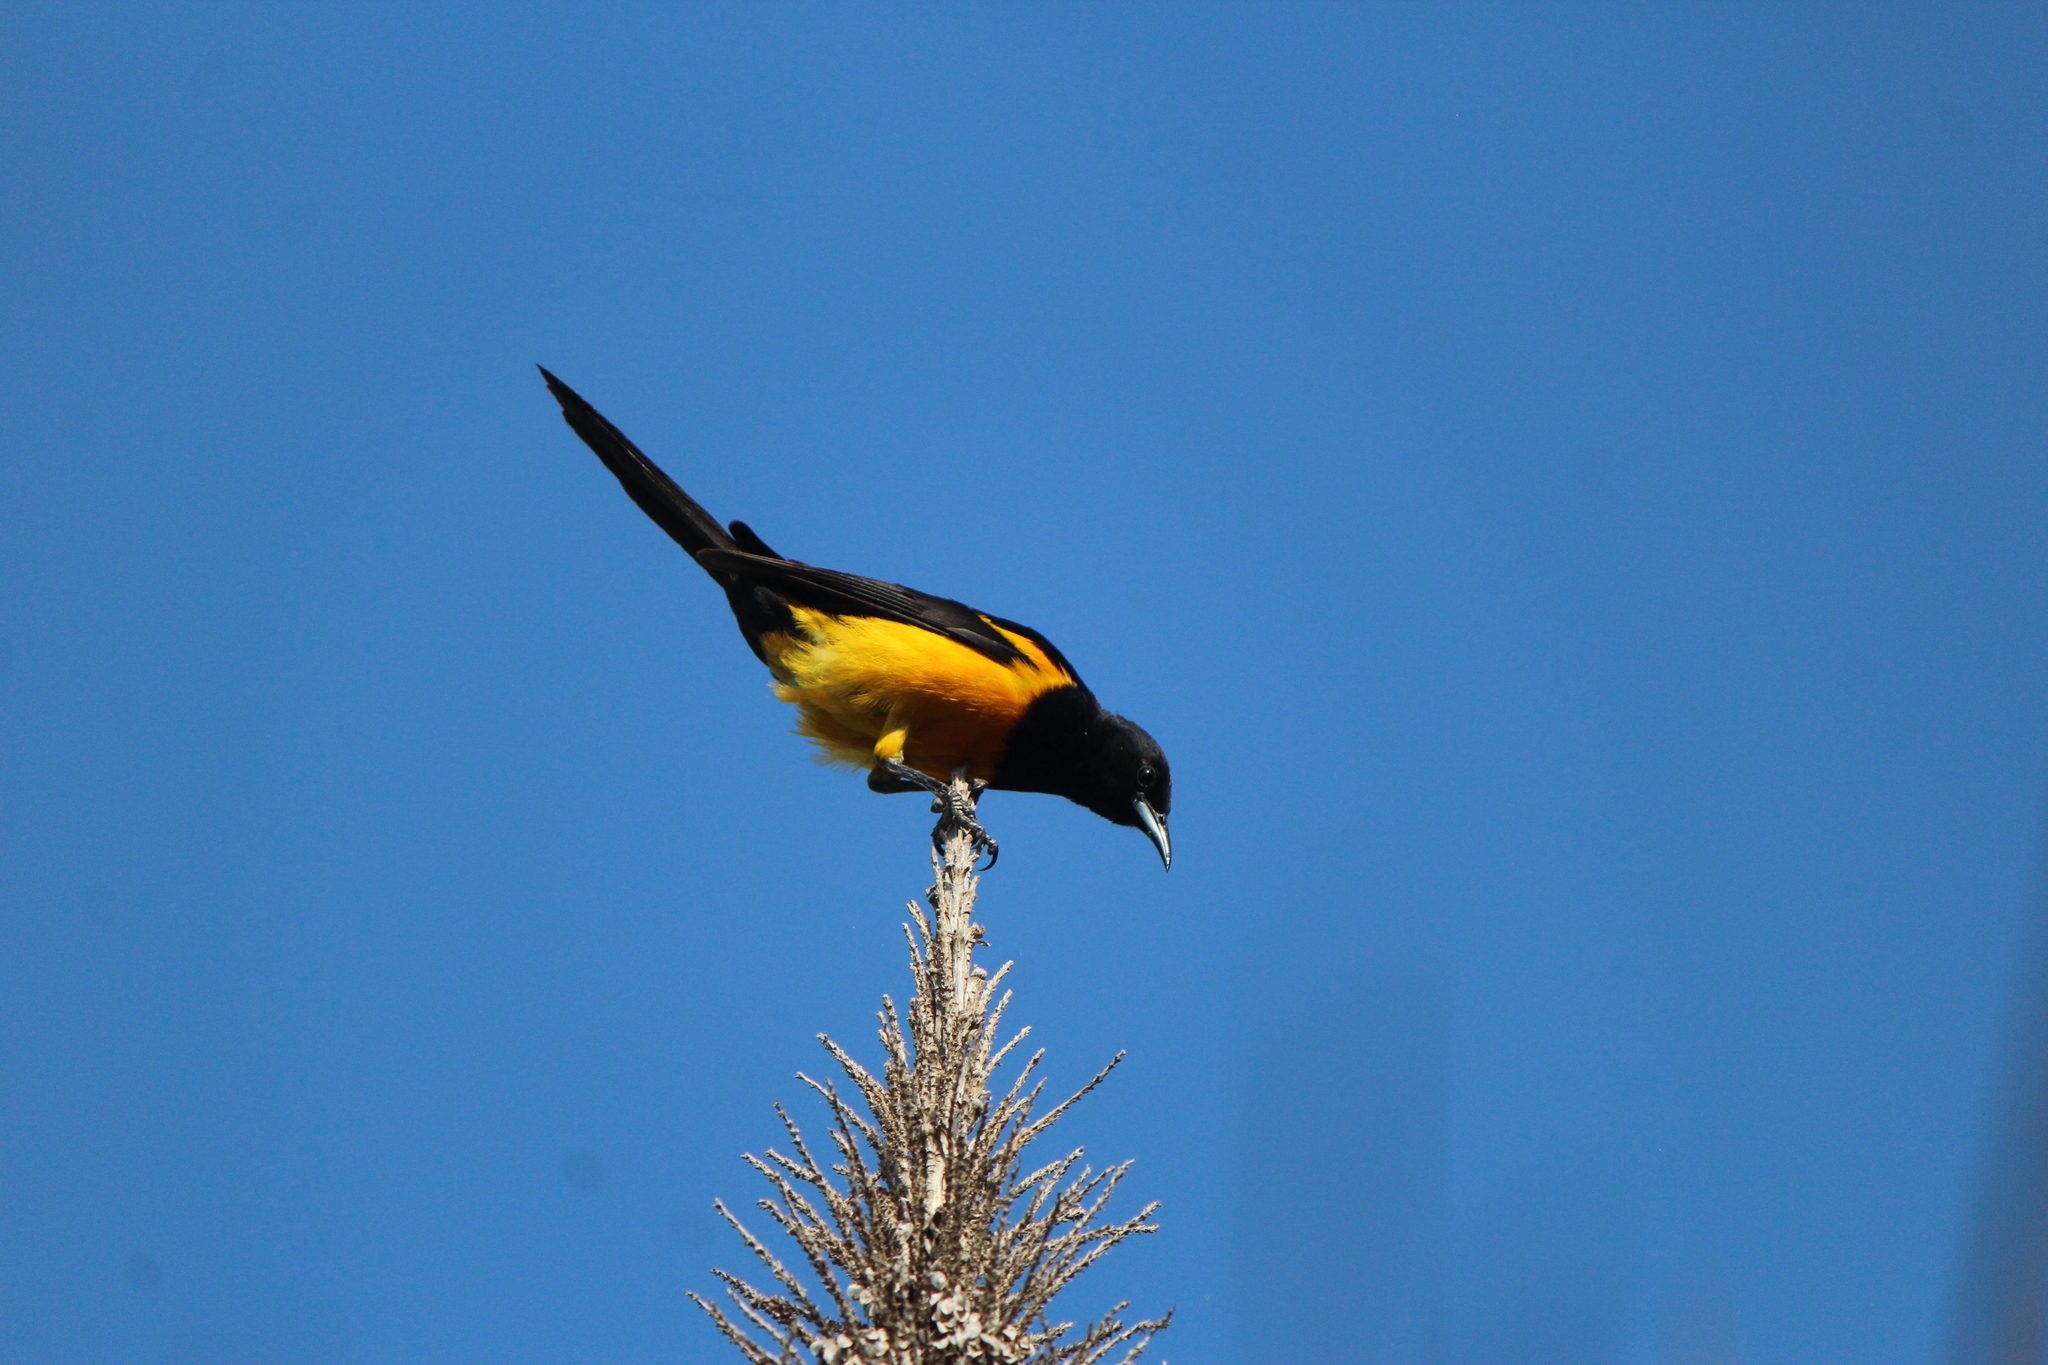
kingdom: Animalia
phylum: Chordata
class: Aves
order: Passeriformes
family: Icteridae
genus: Icterus
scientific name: Icterus wagleri
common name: Black-vented oriole
